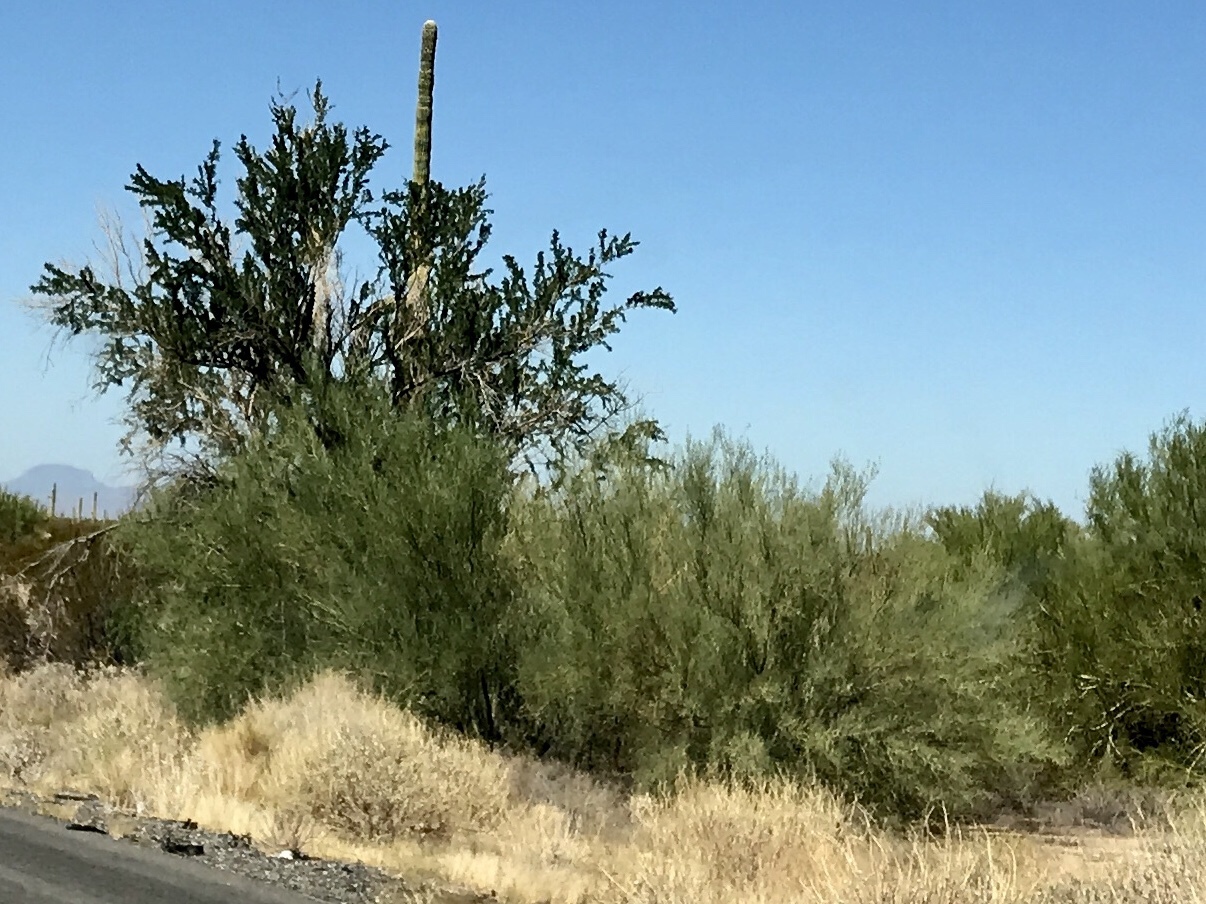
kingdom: Plantae
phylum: Tracheophyta
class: Magnoliopsida
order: Fabales
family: Fabaceae
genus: Parkinsonia
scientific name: Parkinsonia florida
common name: Blue paloverde
